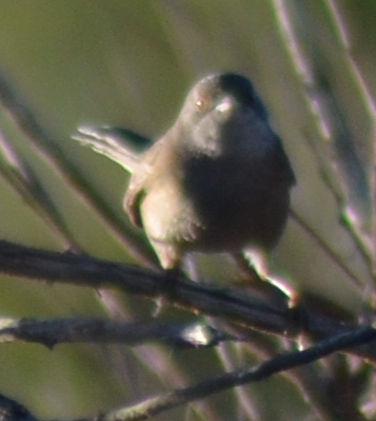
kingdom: Animalia
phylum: Chordata
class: Aves
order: Passeriformes
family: Sylviidae
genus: Curruca
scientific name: Curruca melanocephala
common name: Sardinian warbler
